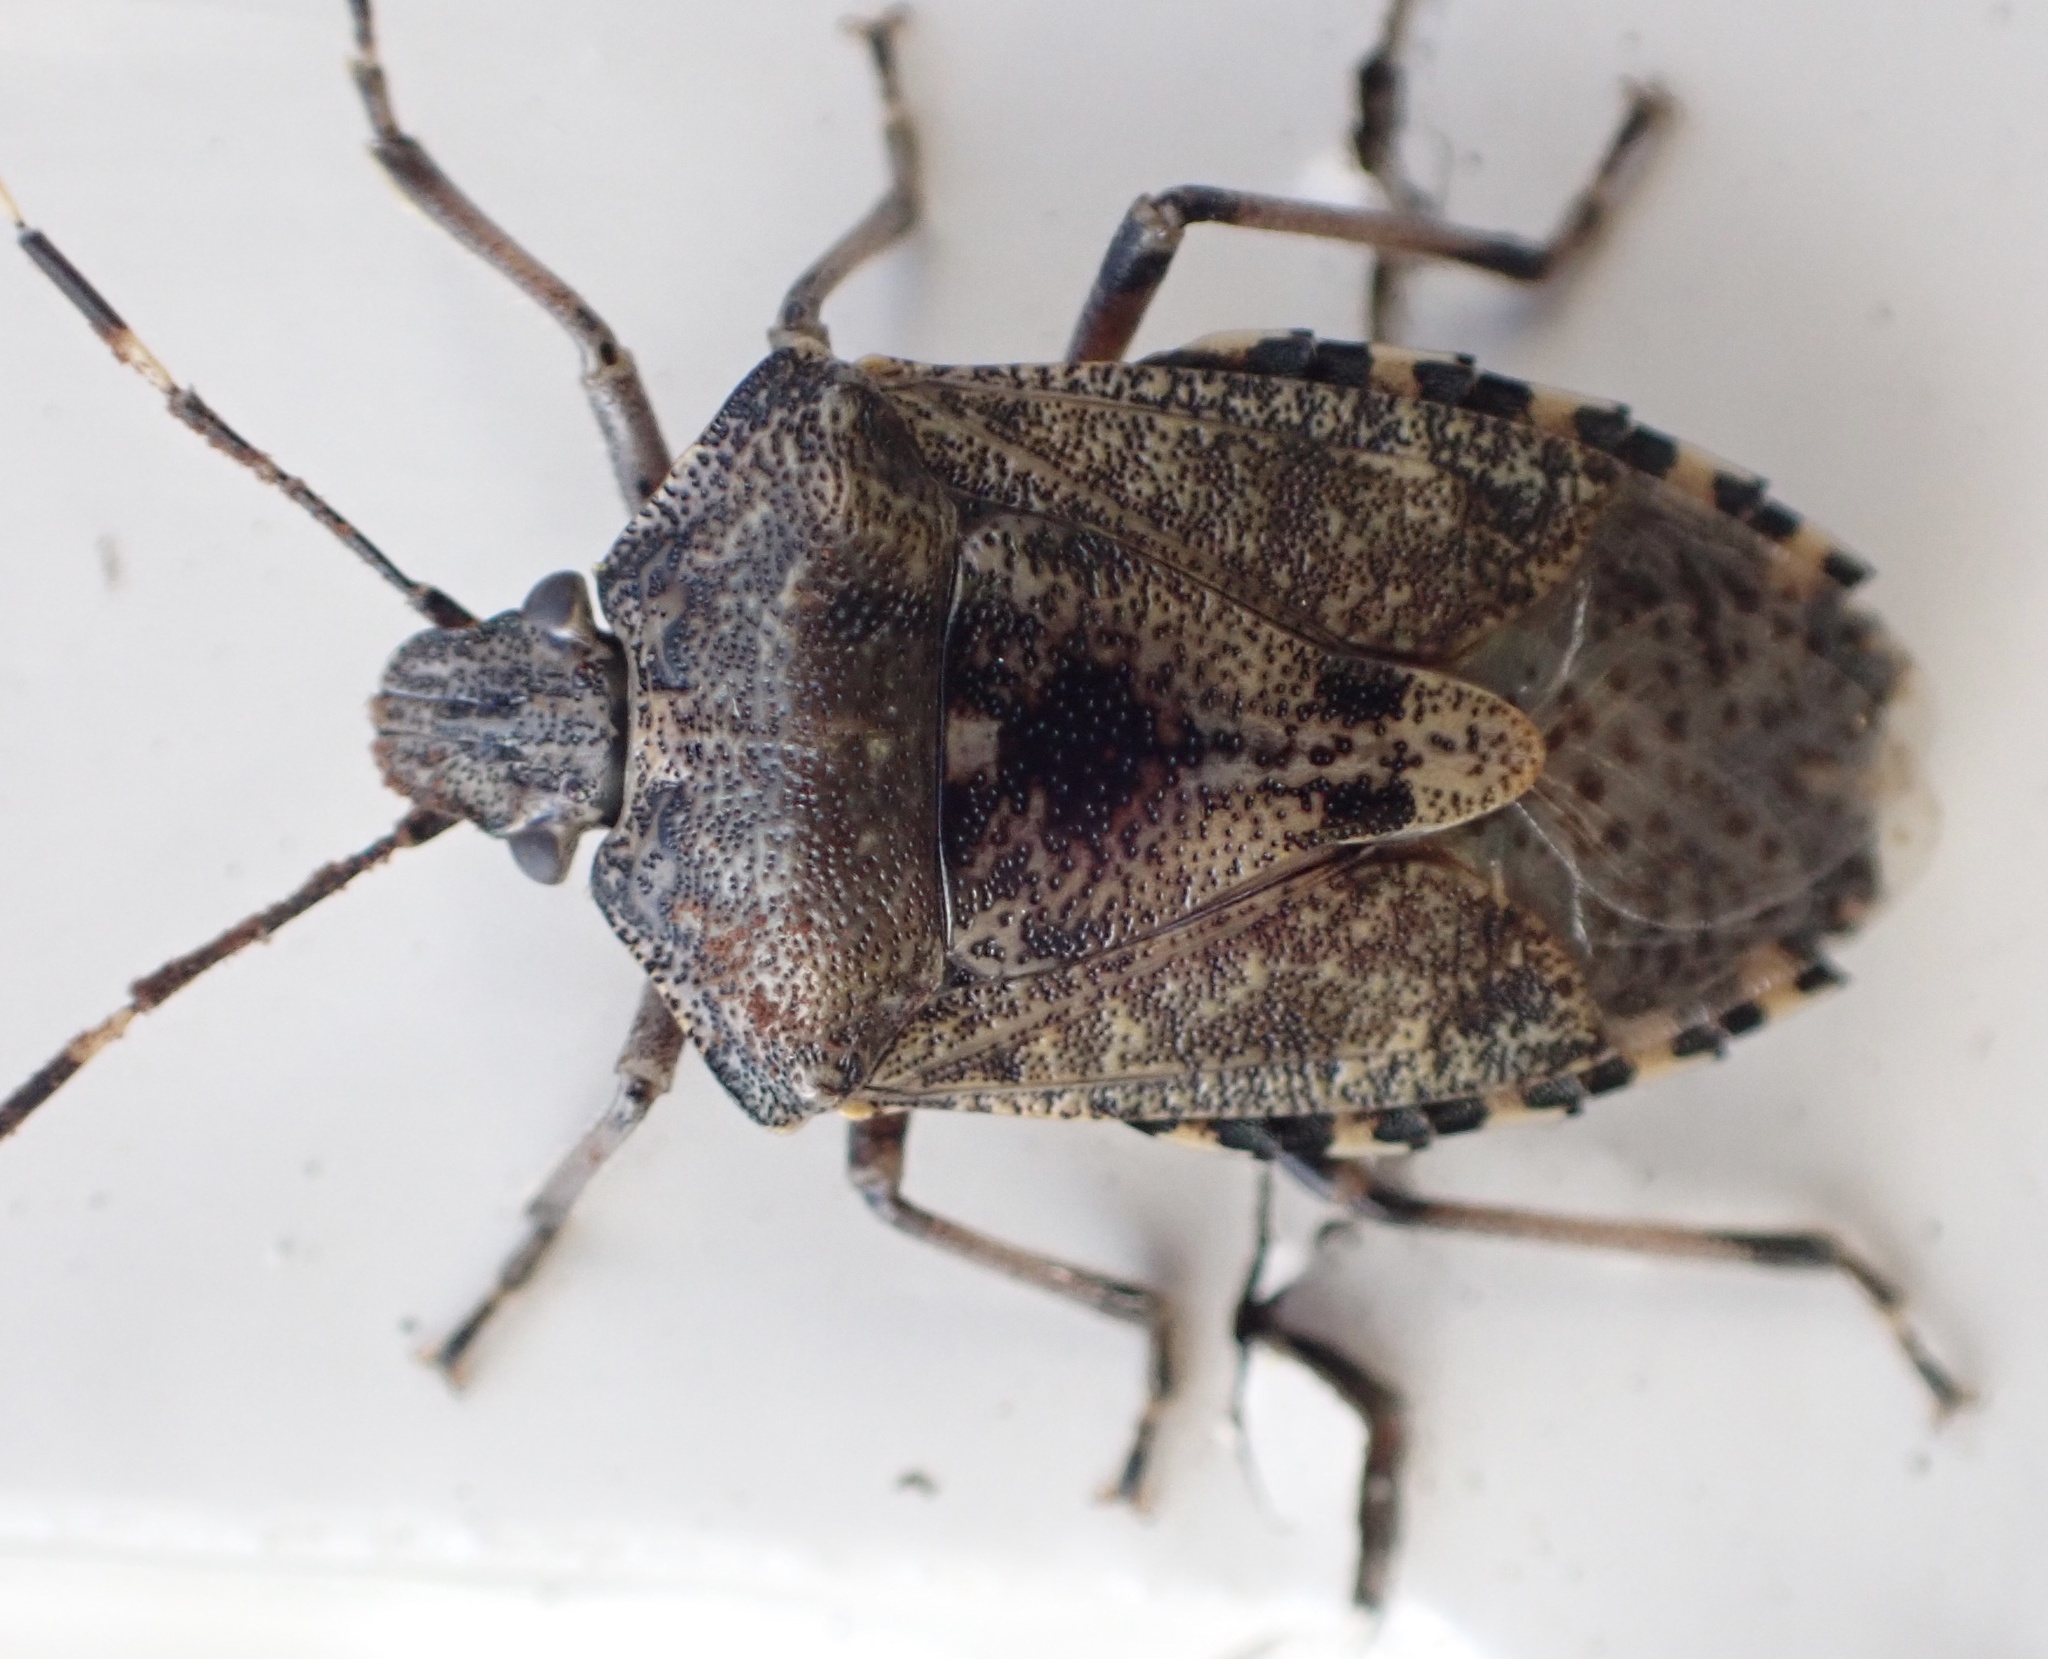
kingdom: Animalia
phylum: Arthropoda
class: Insecta
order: Hemiptera
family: Pentatomidae
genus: Rhaphigaster
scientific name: Rhaphigaster nebulosa
